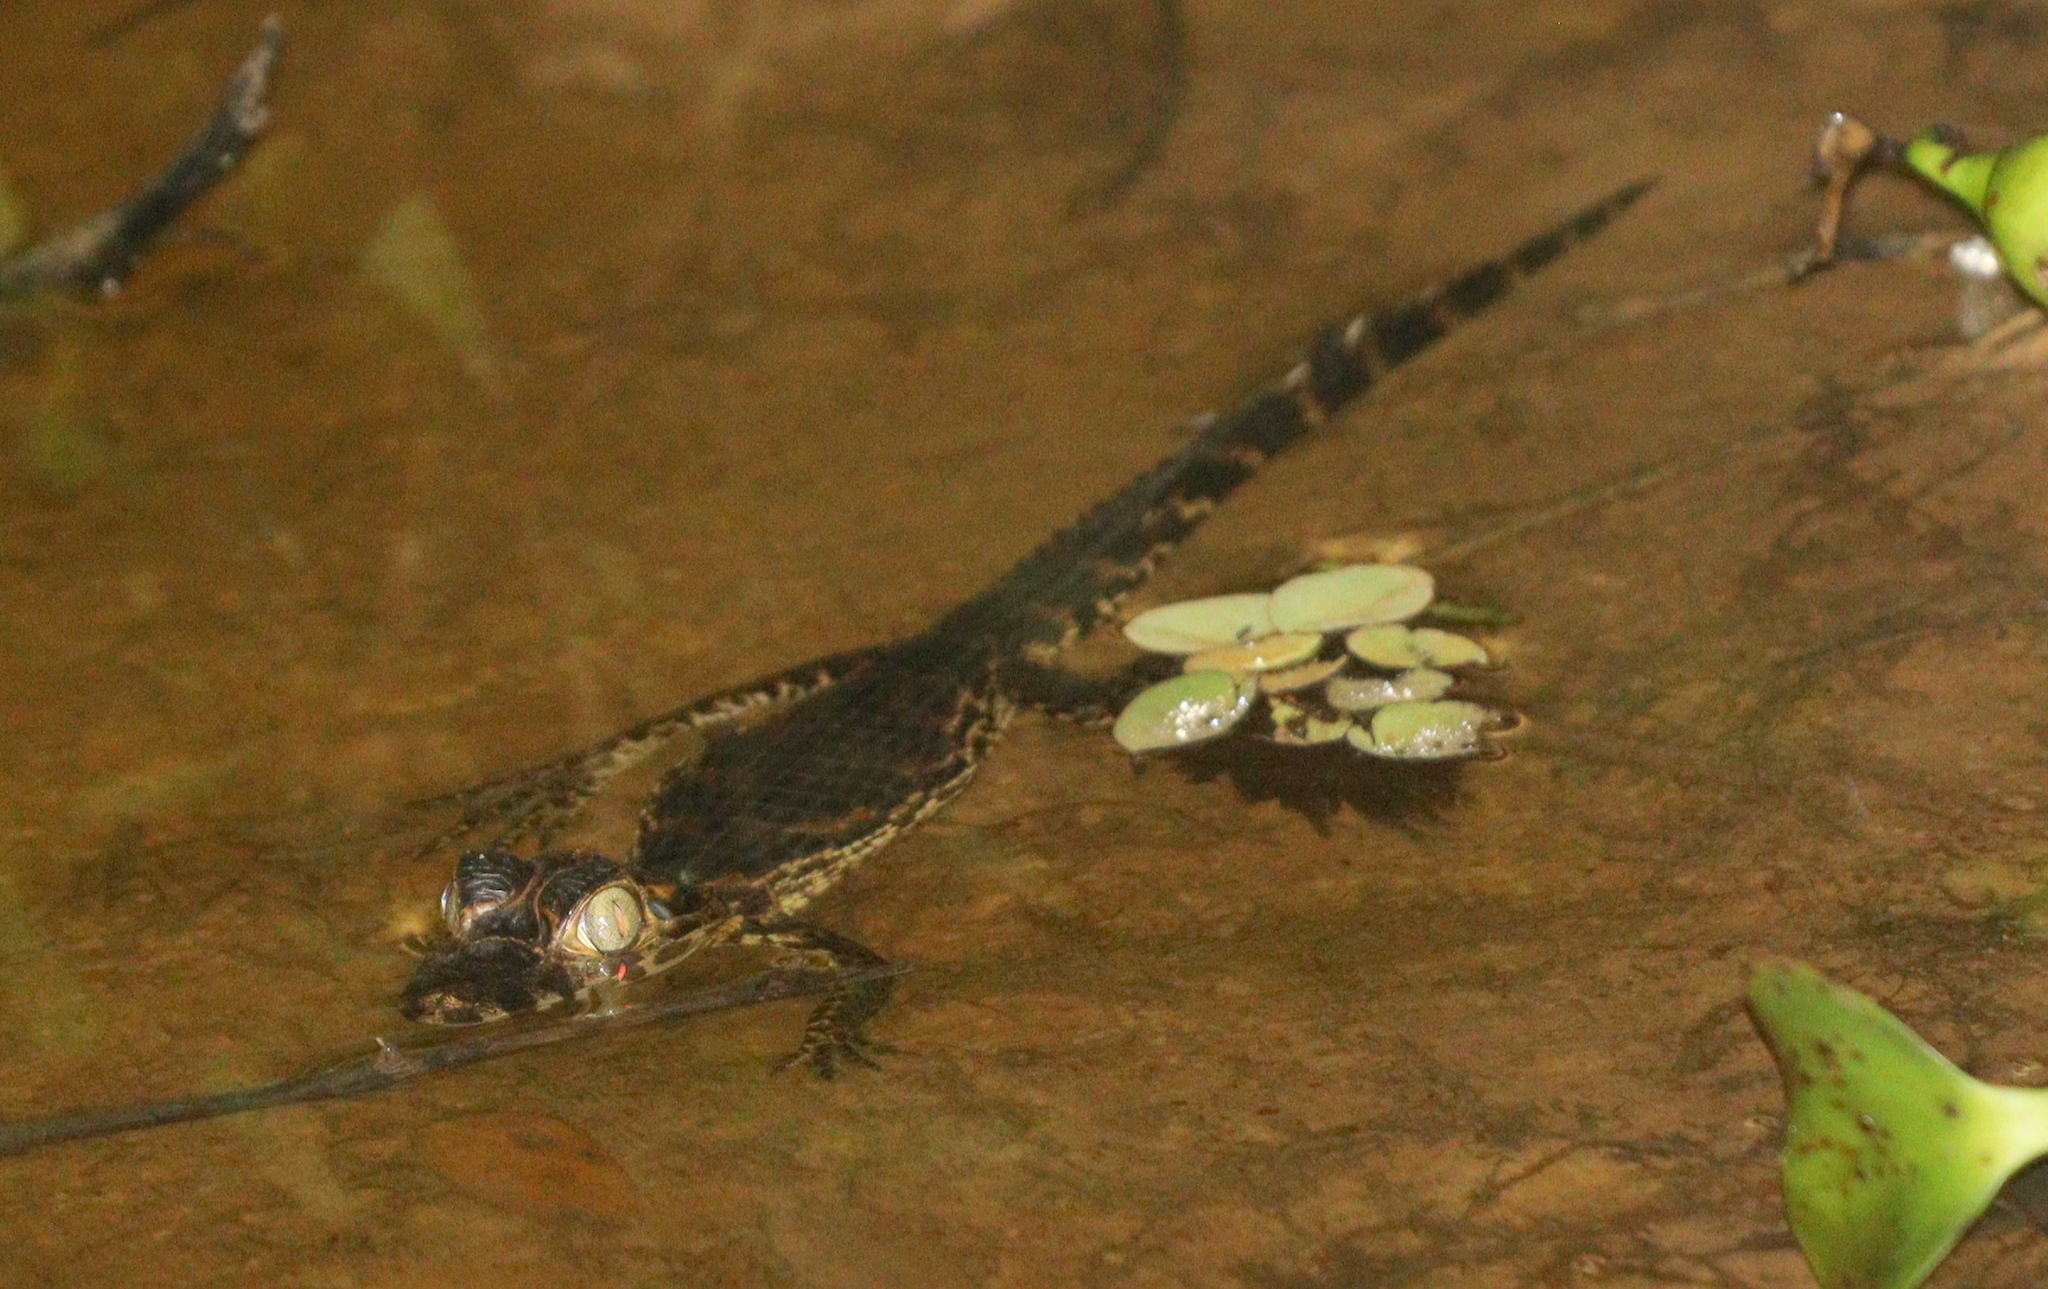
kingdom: Animalia
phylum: Chordata
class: Crocodylia
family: Alligatoridae
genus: Caiman
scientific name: Caiman yacare
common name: Yacare caiman
